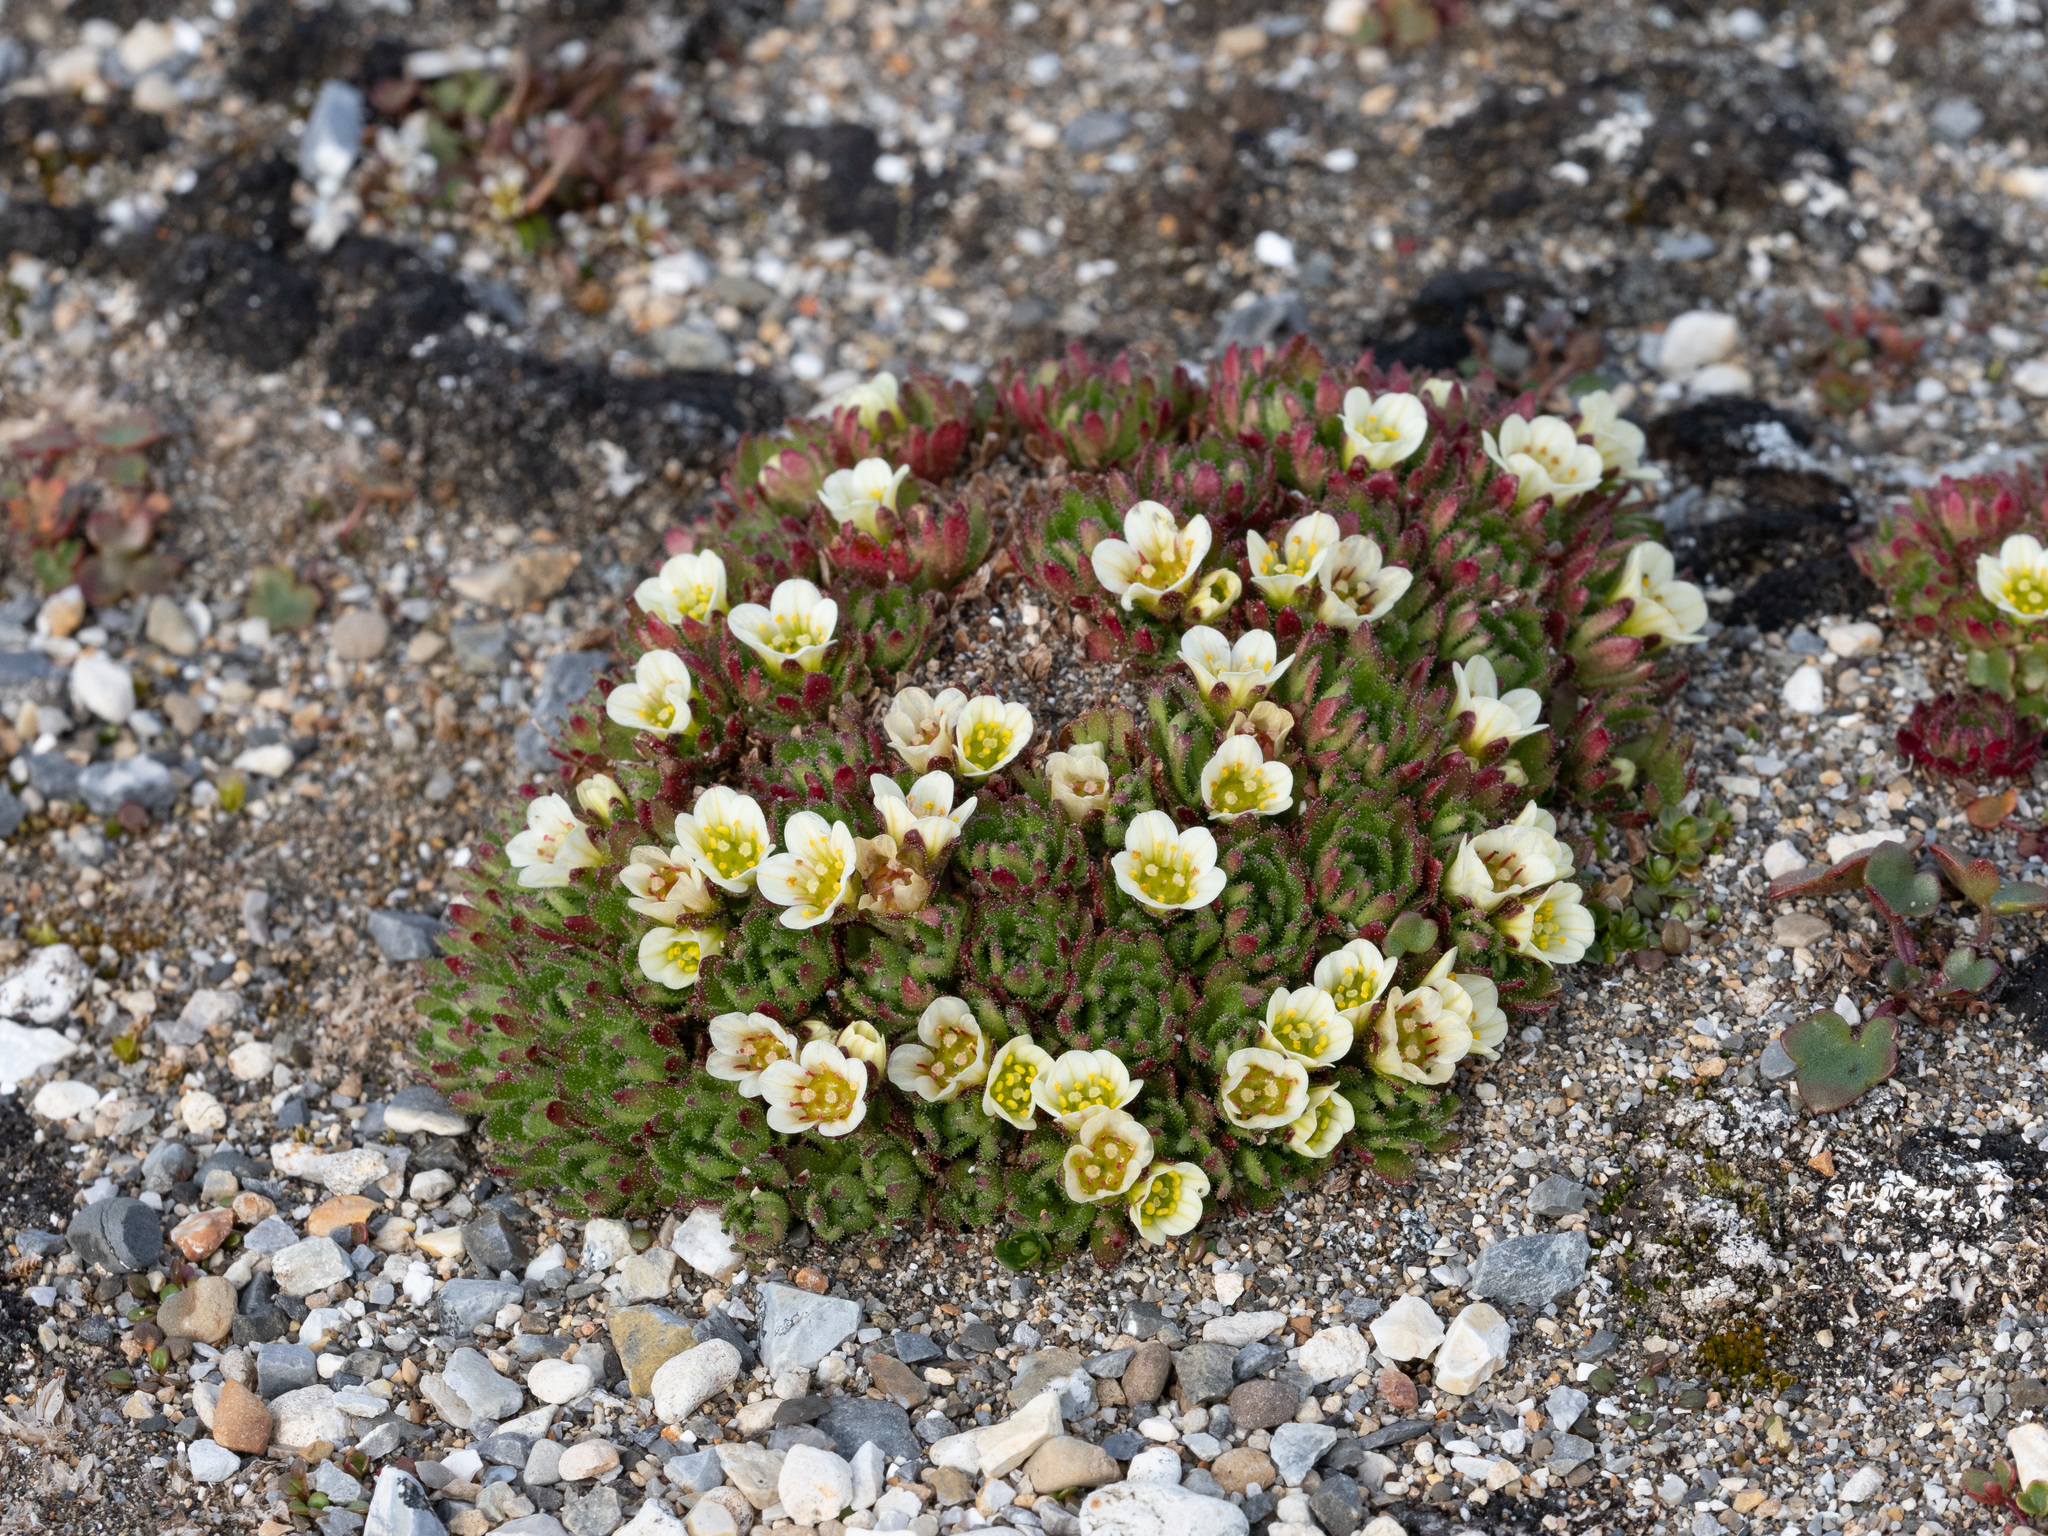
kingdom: Plantae
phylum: Tracheophyta
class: Magnoliopsida
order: Saxifragales
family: Saxifragaceae
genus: Saxifraga
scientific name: Saxifraga cespitosa
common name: Tufted saxifrage
